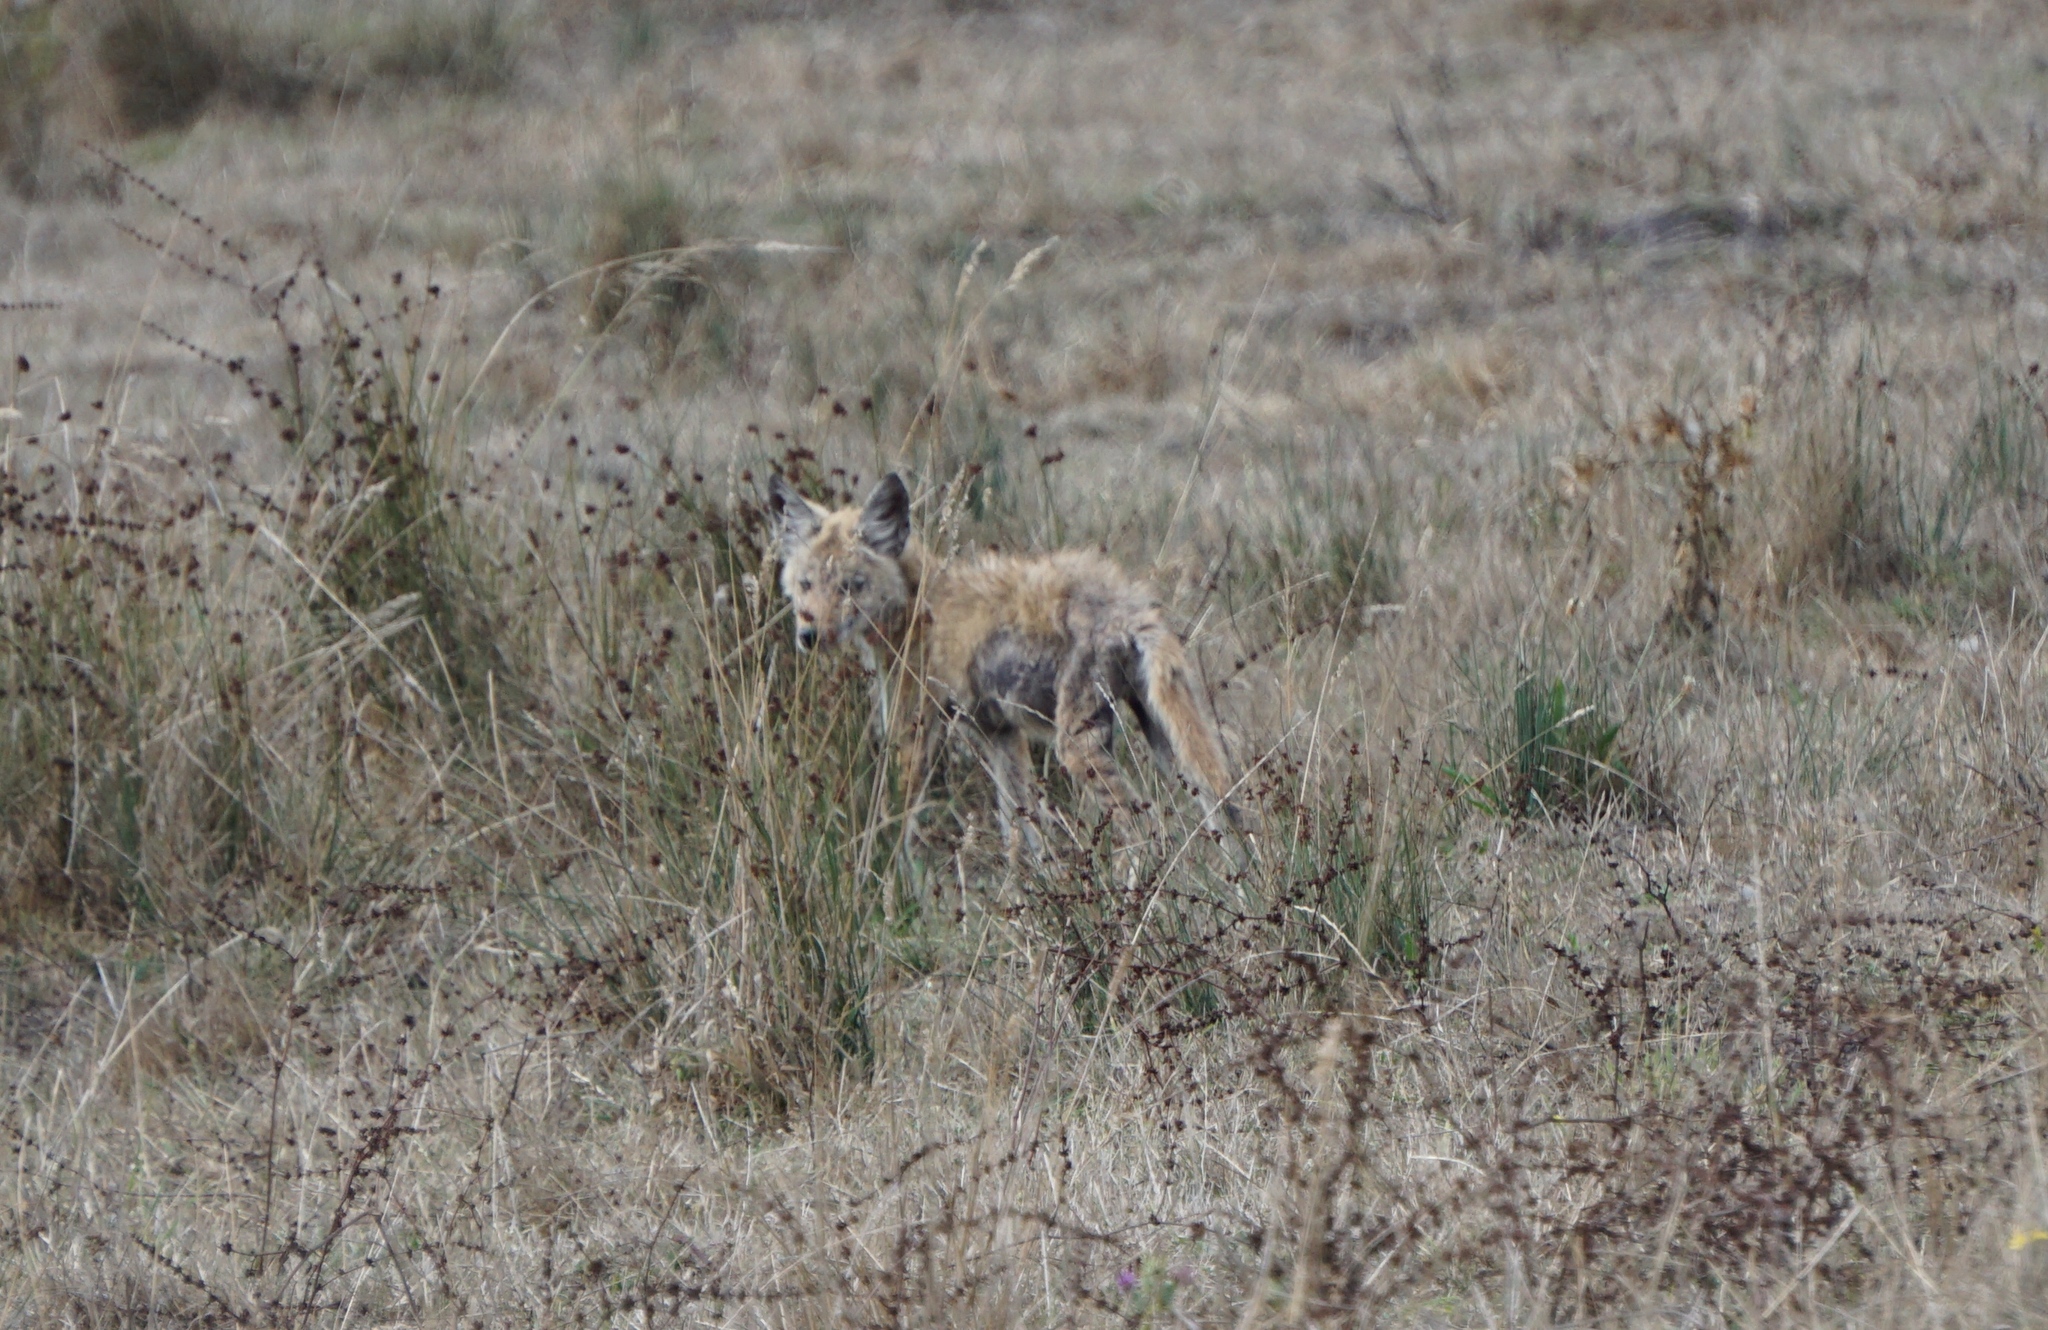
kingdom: Animalia
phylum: Chordata
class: Mammalia
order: Carnivora
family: Canidae
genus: Canis
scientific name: Canis latrans
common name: Coyote
